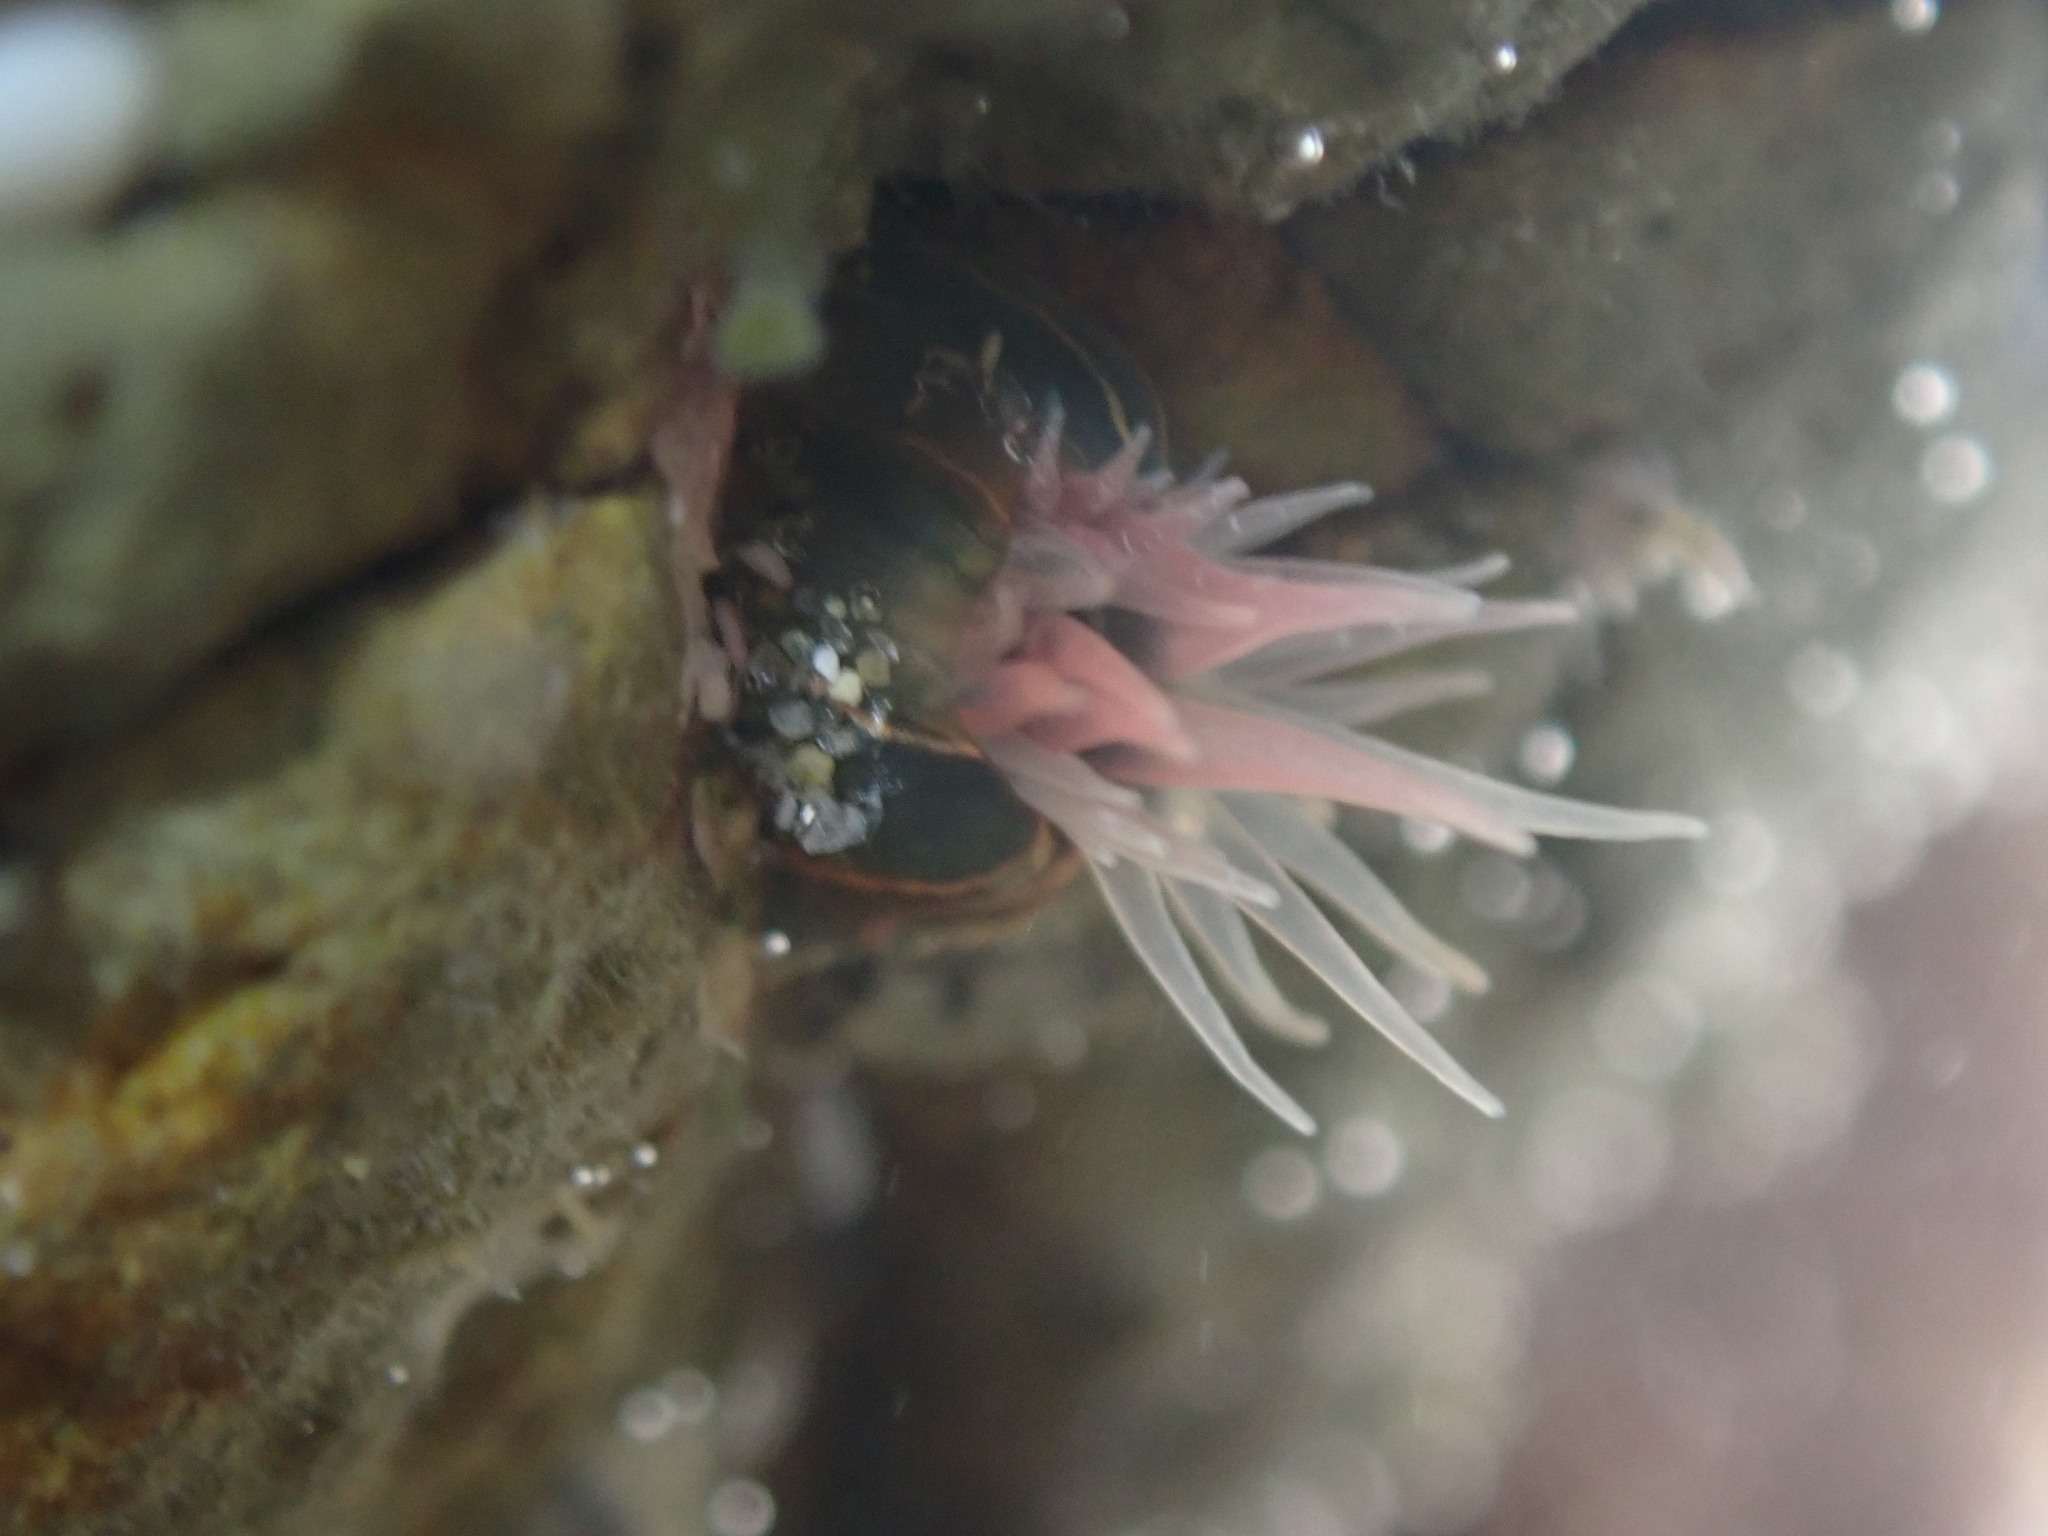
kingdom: Animalia
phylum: Cnidaria
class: Anthozoa
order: Actiniaria
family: Diadumenidae
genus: Diadumene
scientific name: Diadumene lineata
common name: Orange-striped anemone
